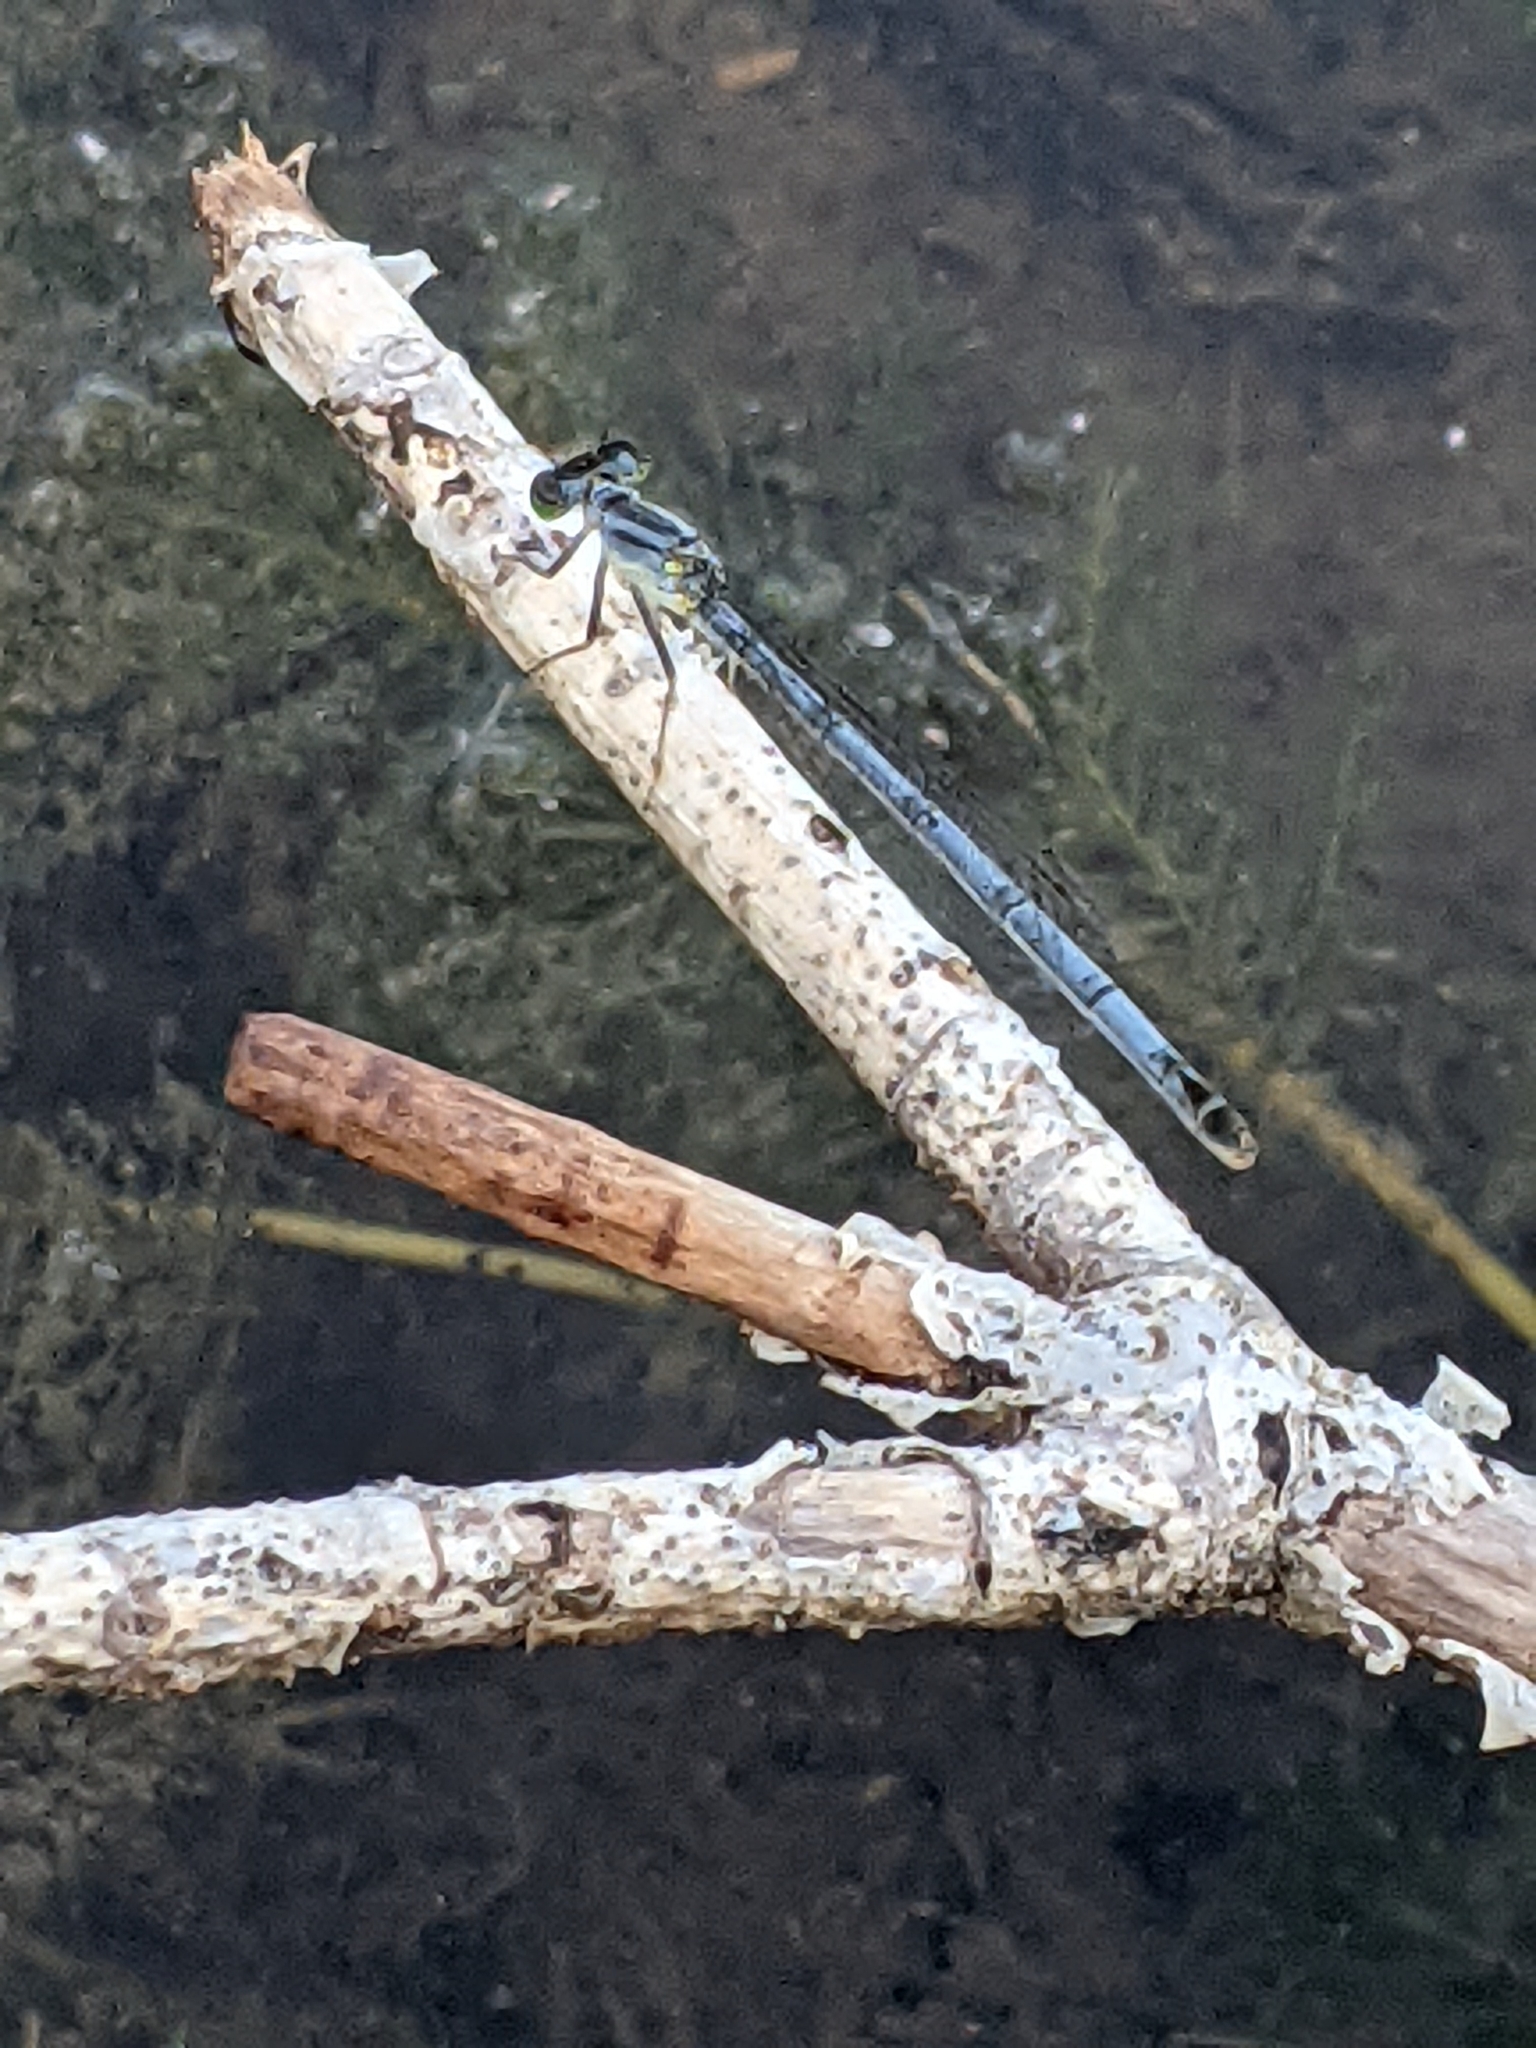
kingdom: Animalia
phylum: Arthropoda
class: Insecta
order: Odonata
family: Coenagrionidae
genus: Ischnura
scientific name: Ischnura verticalis
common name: Eastern forktail
